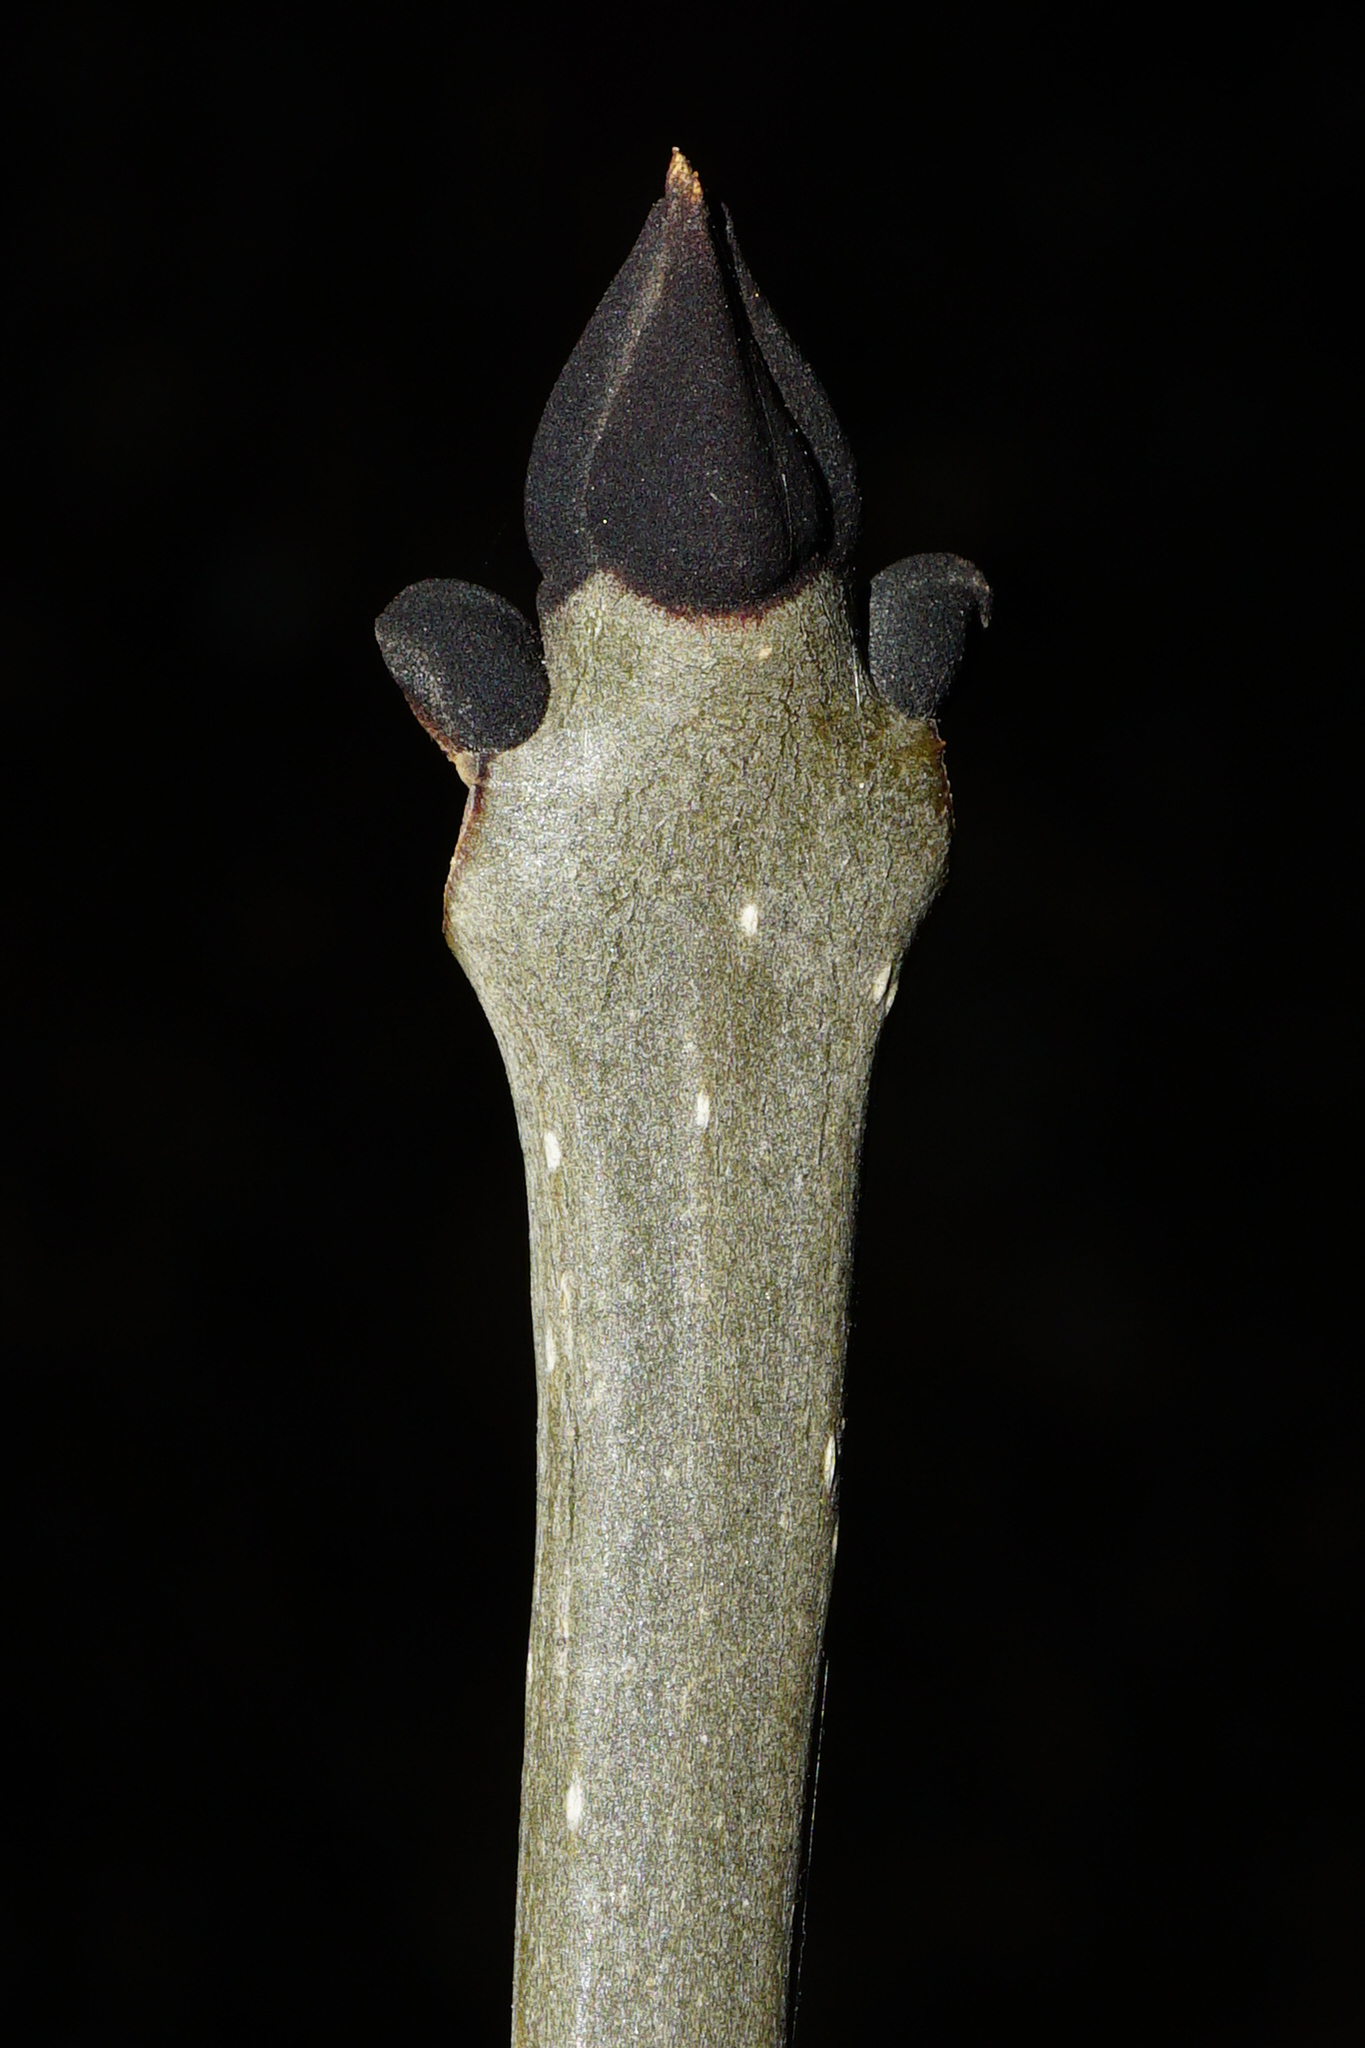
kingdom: Plantae
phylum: Tracheophyta
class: Magnoliopsida
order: Lamiales
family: Oleaceae
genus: Fraxinus
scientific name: Fraxinus excelsior
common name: European ash
